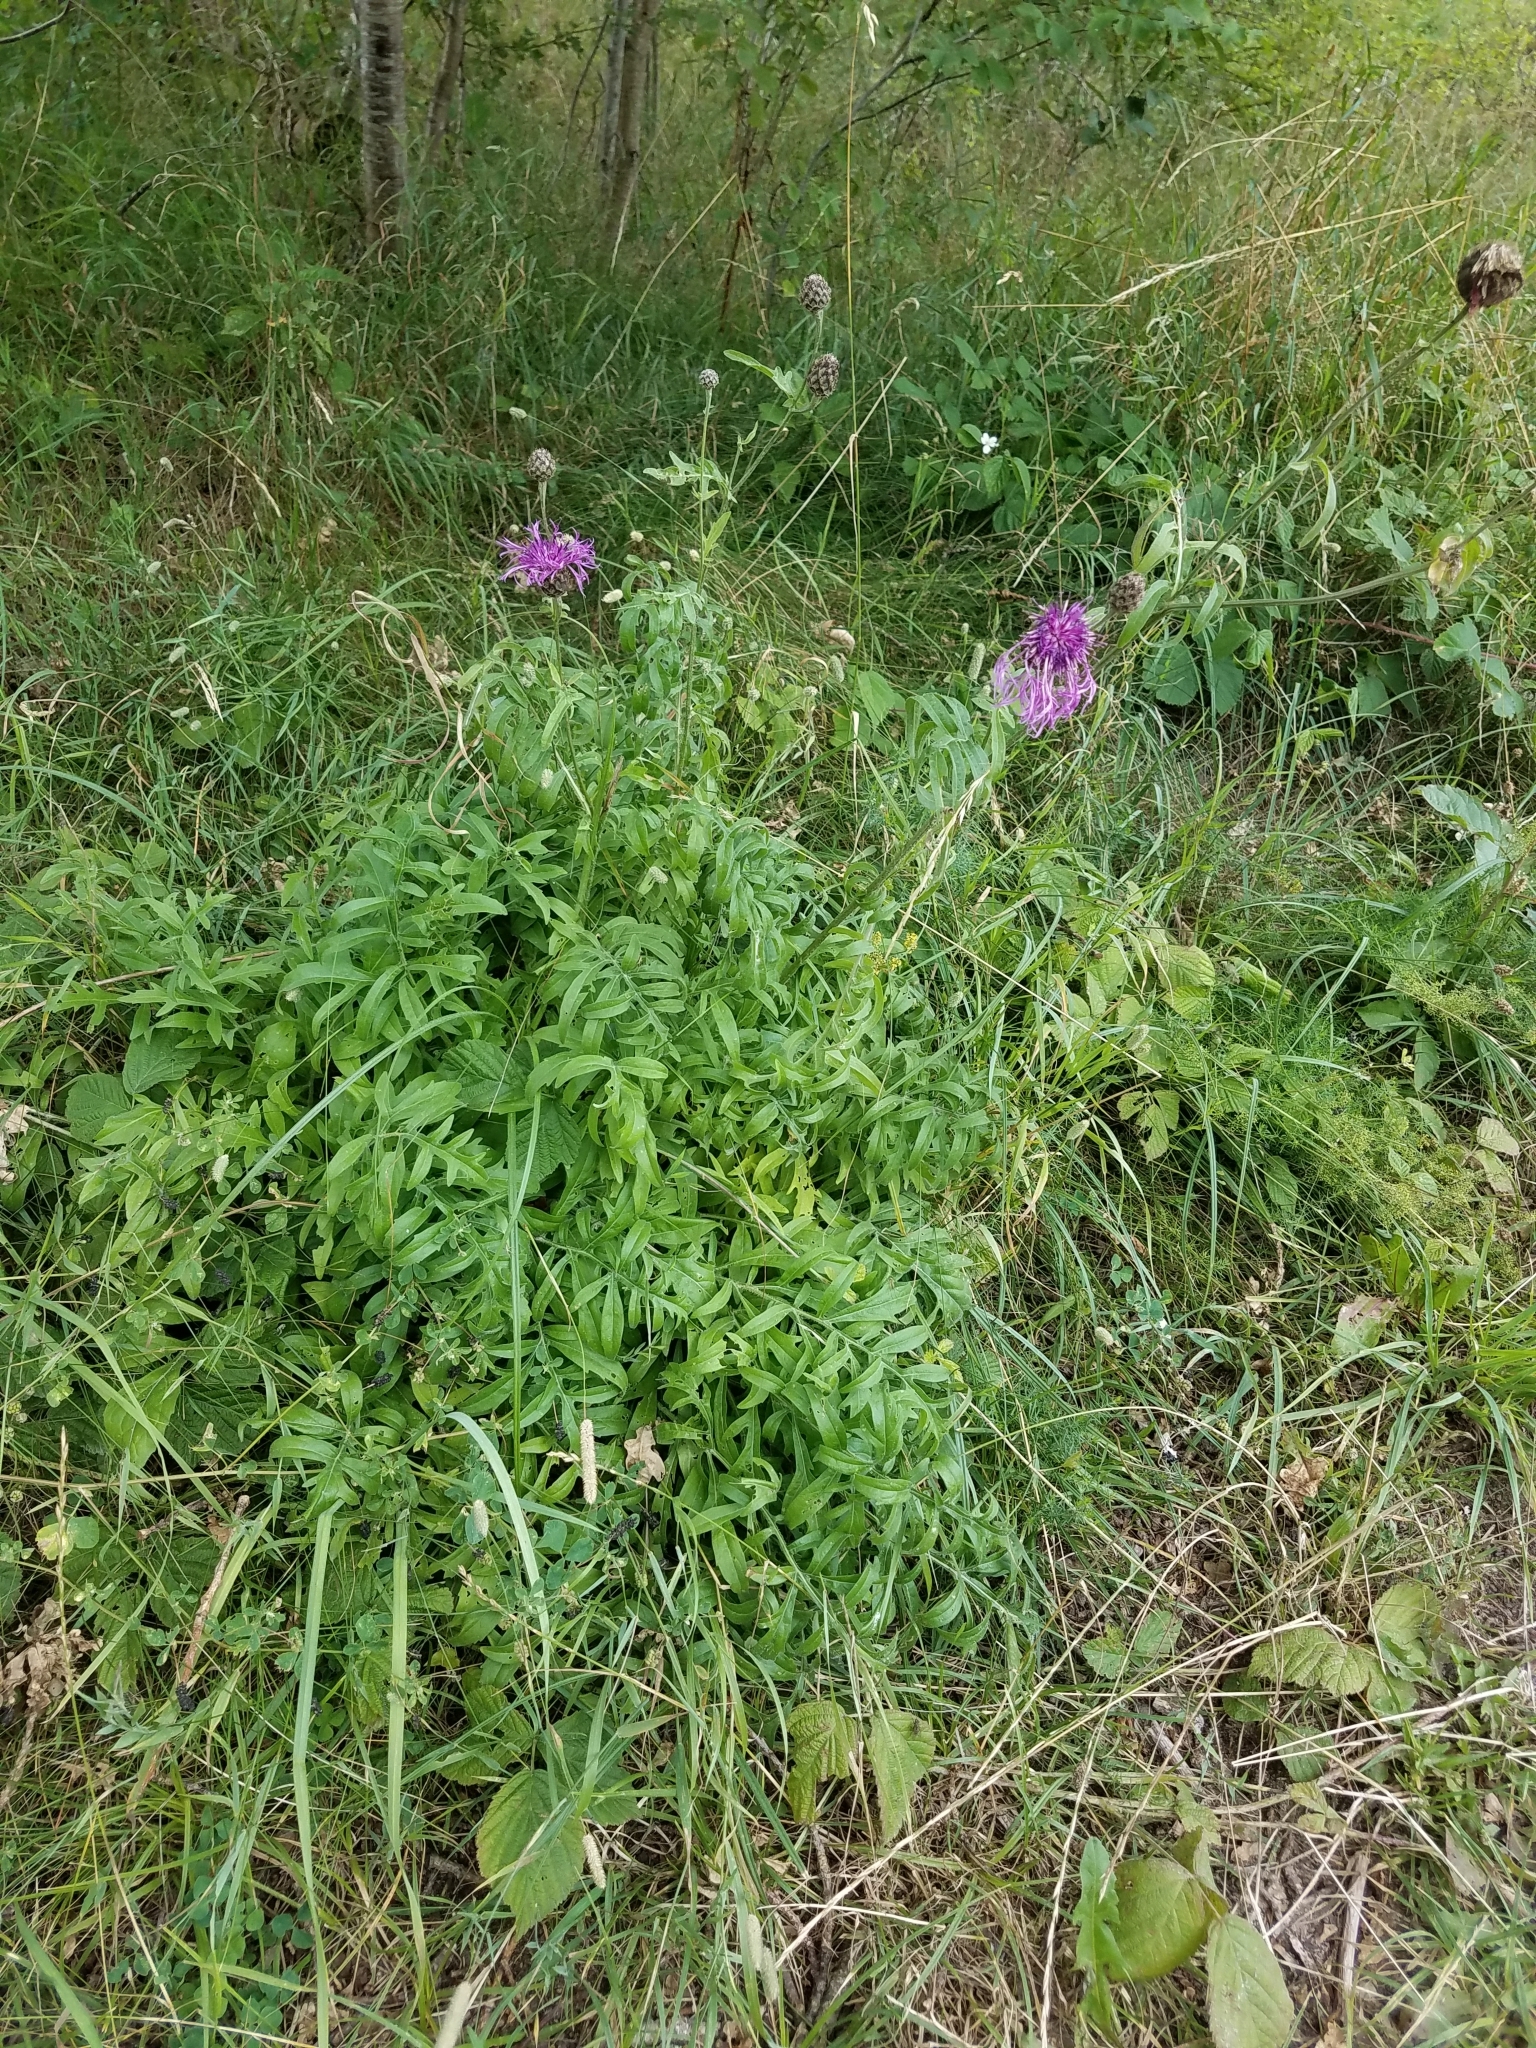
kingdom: Plantae
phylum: Tracheophyta
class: Magnoliopsida
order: Asterales
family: Asteraceae
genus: Centaurea
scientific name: Centaurea scabiosa
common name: Greater knapweed
